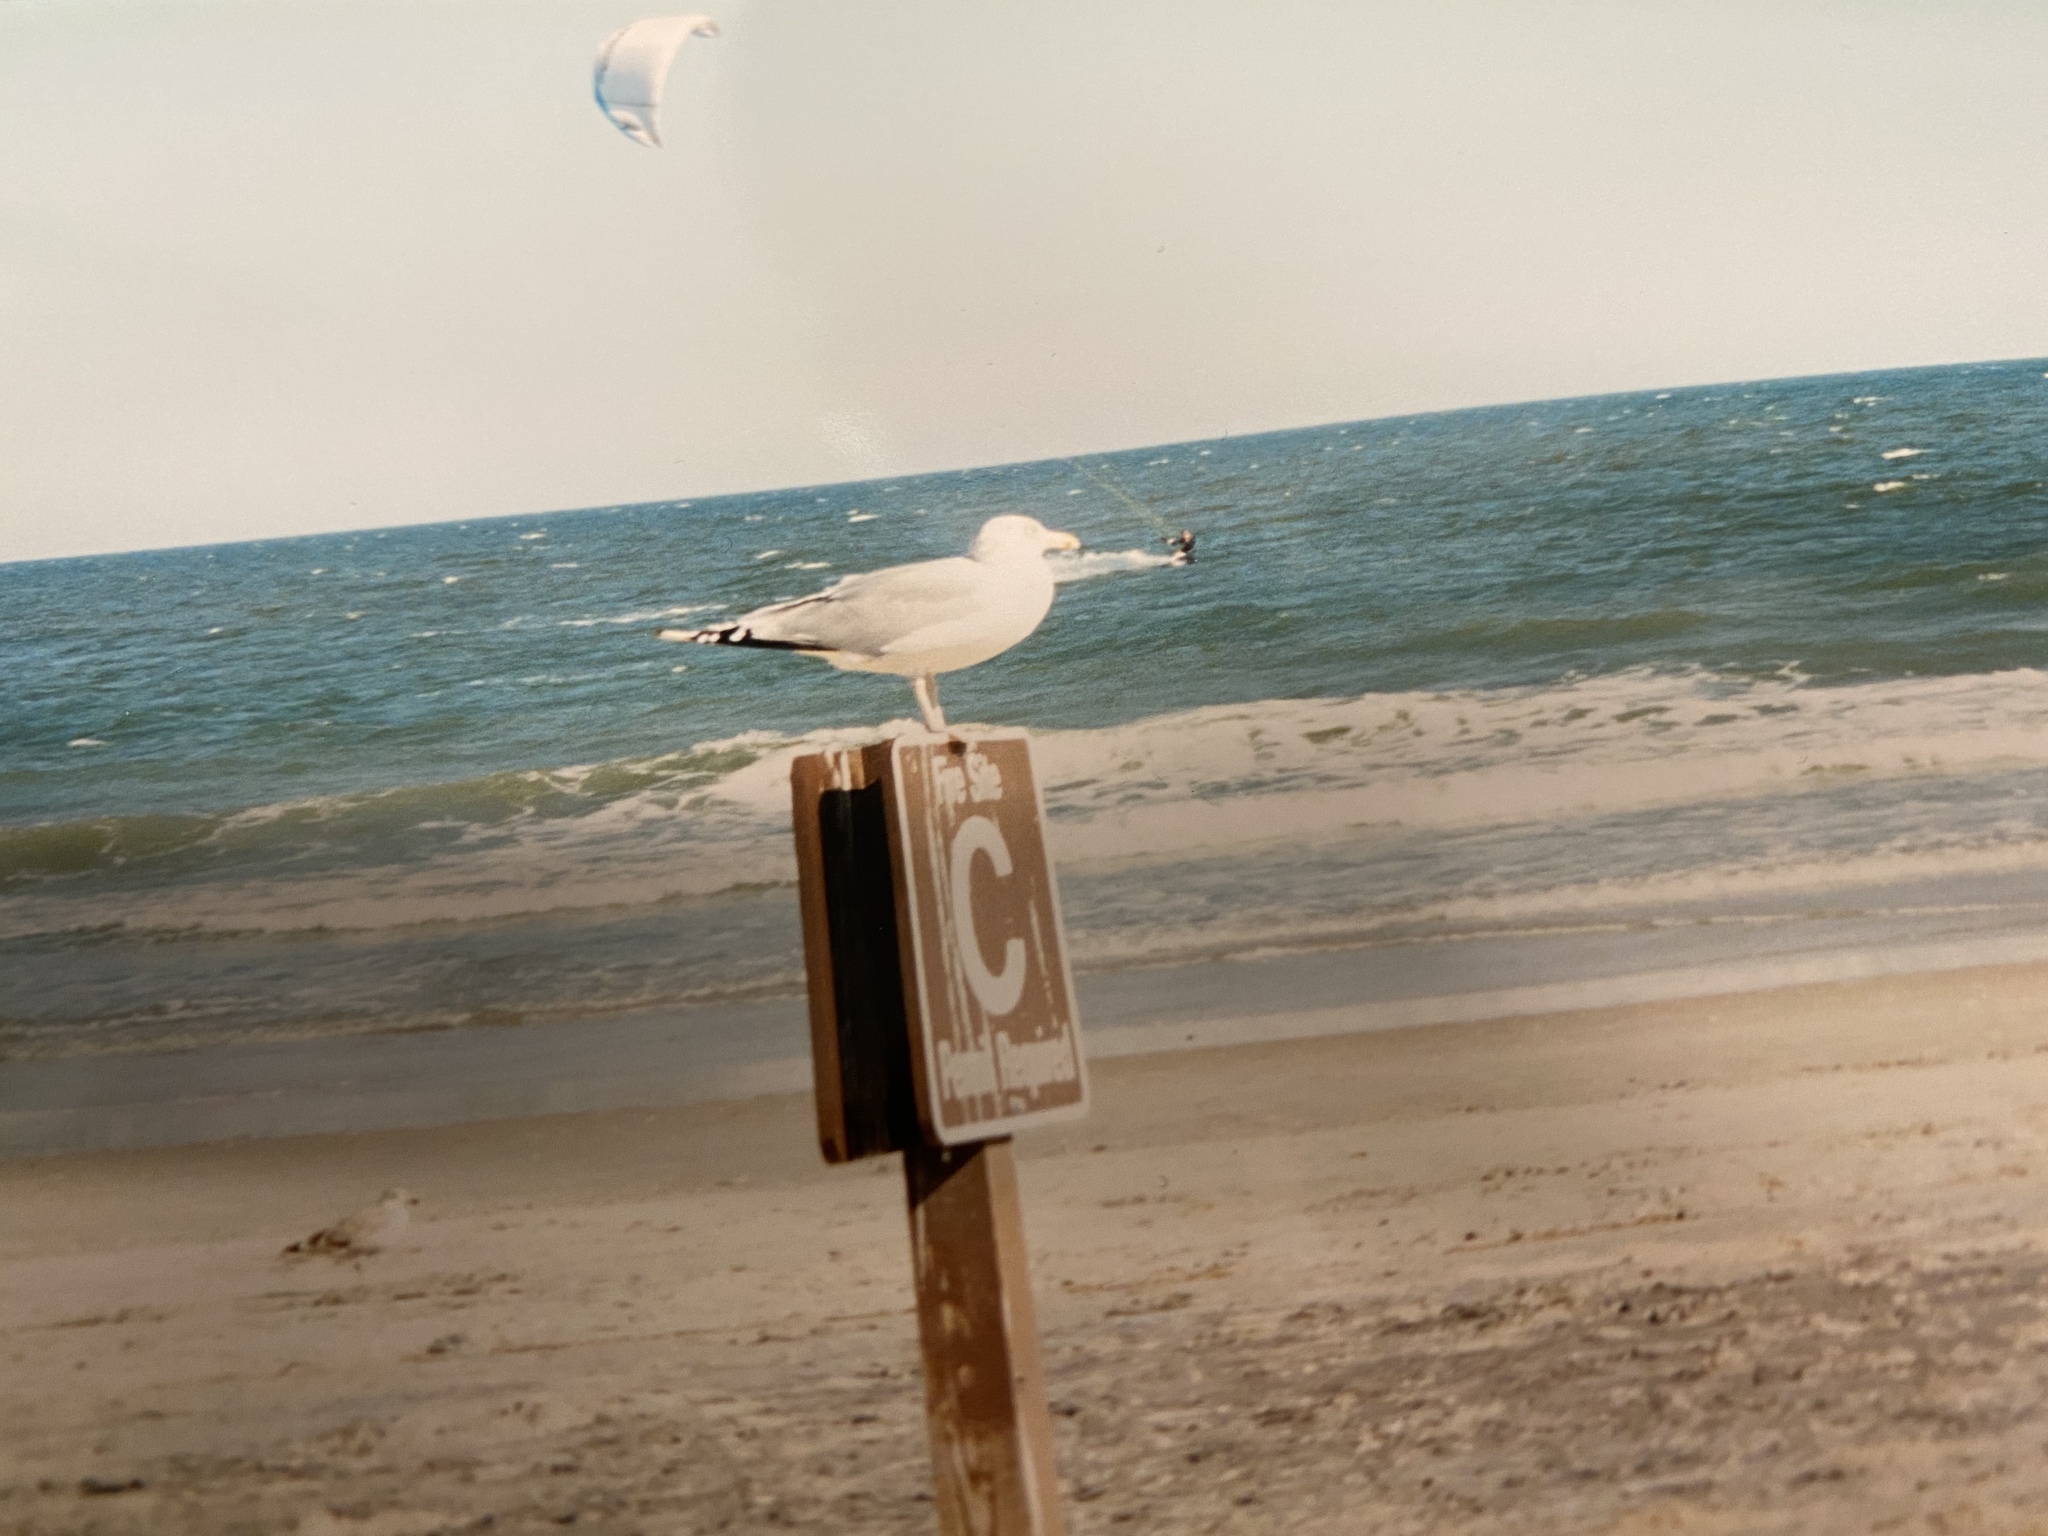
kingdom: Animalia
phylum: Chordata
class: Aves
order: Charadriiformes
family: Laridae
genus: Larus
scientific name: Larus argentatus
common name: Herring gull
